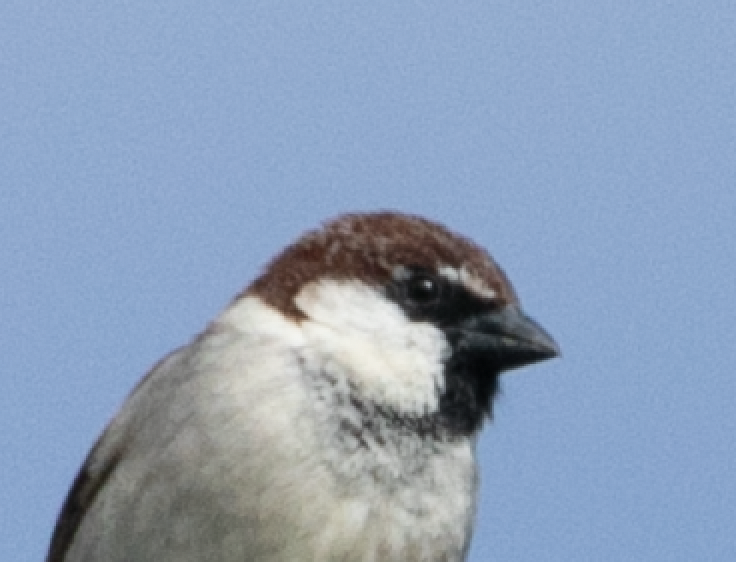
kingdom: Animalia
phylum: Chordata
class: Aves
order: Passeriformes
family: Passeridae
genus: Passer
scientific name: Passer italiae
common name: Italian sparrow
